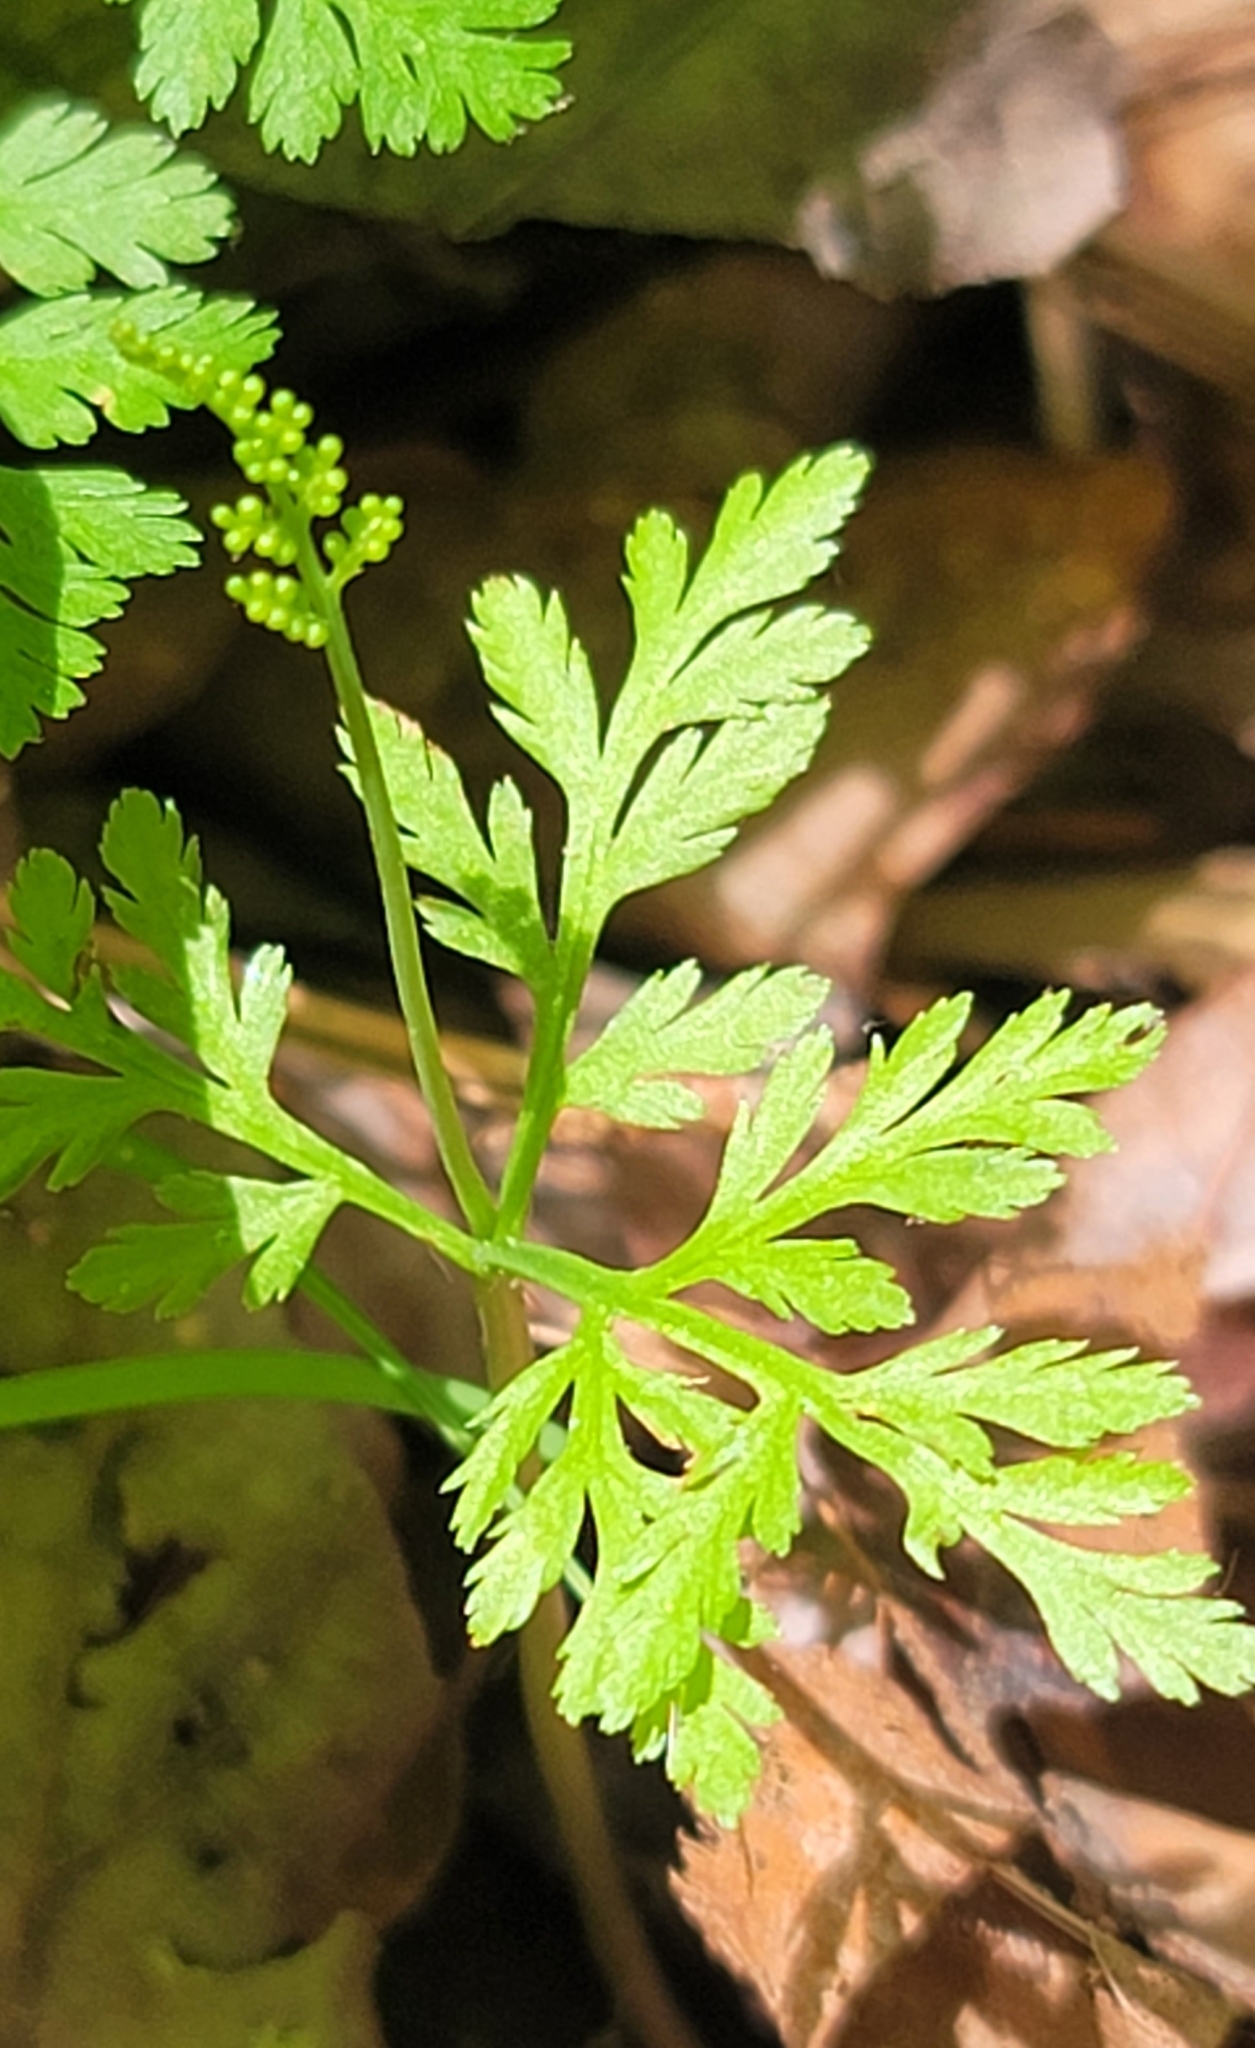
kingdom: Plantae
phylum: Tracheophyta
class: Polypodiopsida
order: Ophioglossales
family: Ophioglossaceae
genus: Botrypus
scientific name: Botrypus virginianus
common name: Common grapefern
